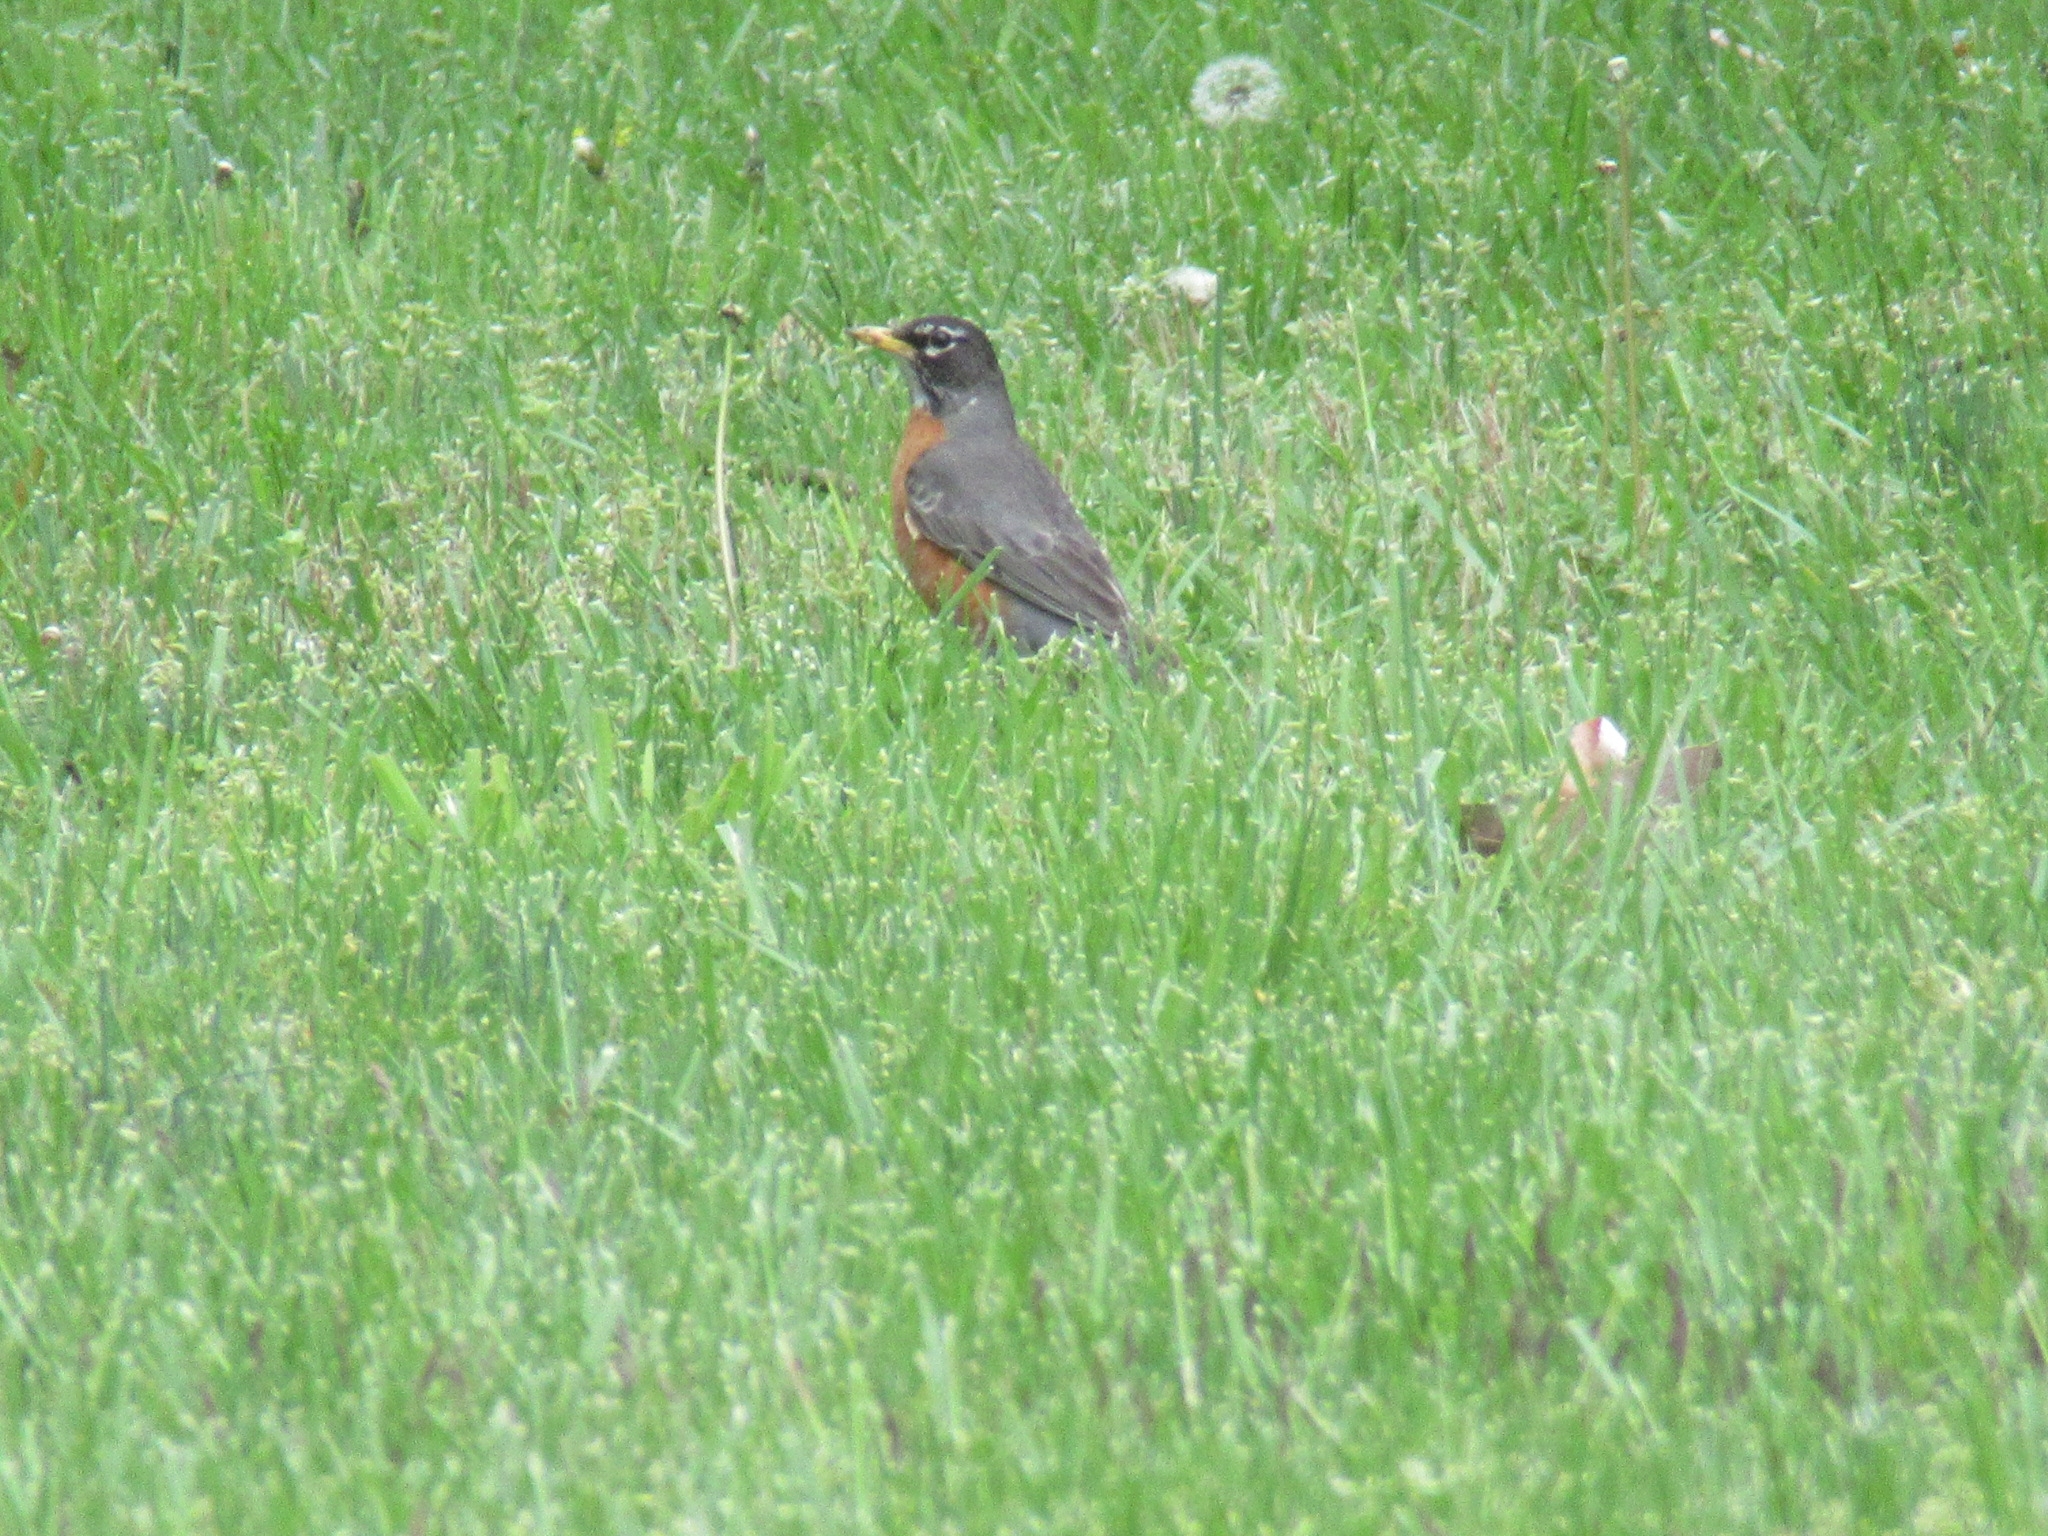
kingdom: Animalia
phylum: Chordata
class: Aves
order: Passeriformes
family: Turdidae
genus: Turdus
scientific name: Turdus migratorius
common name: American robin
